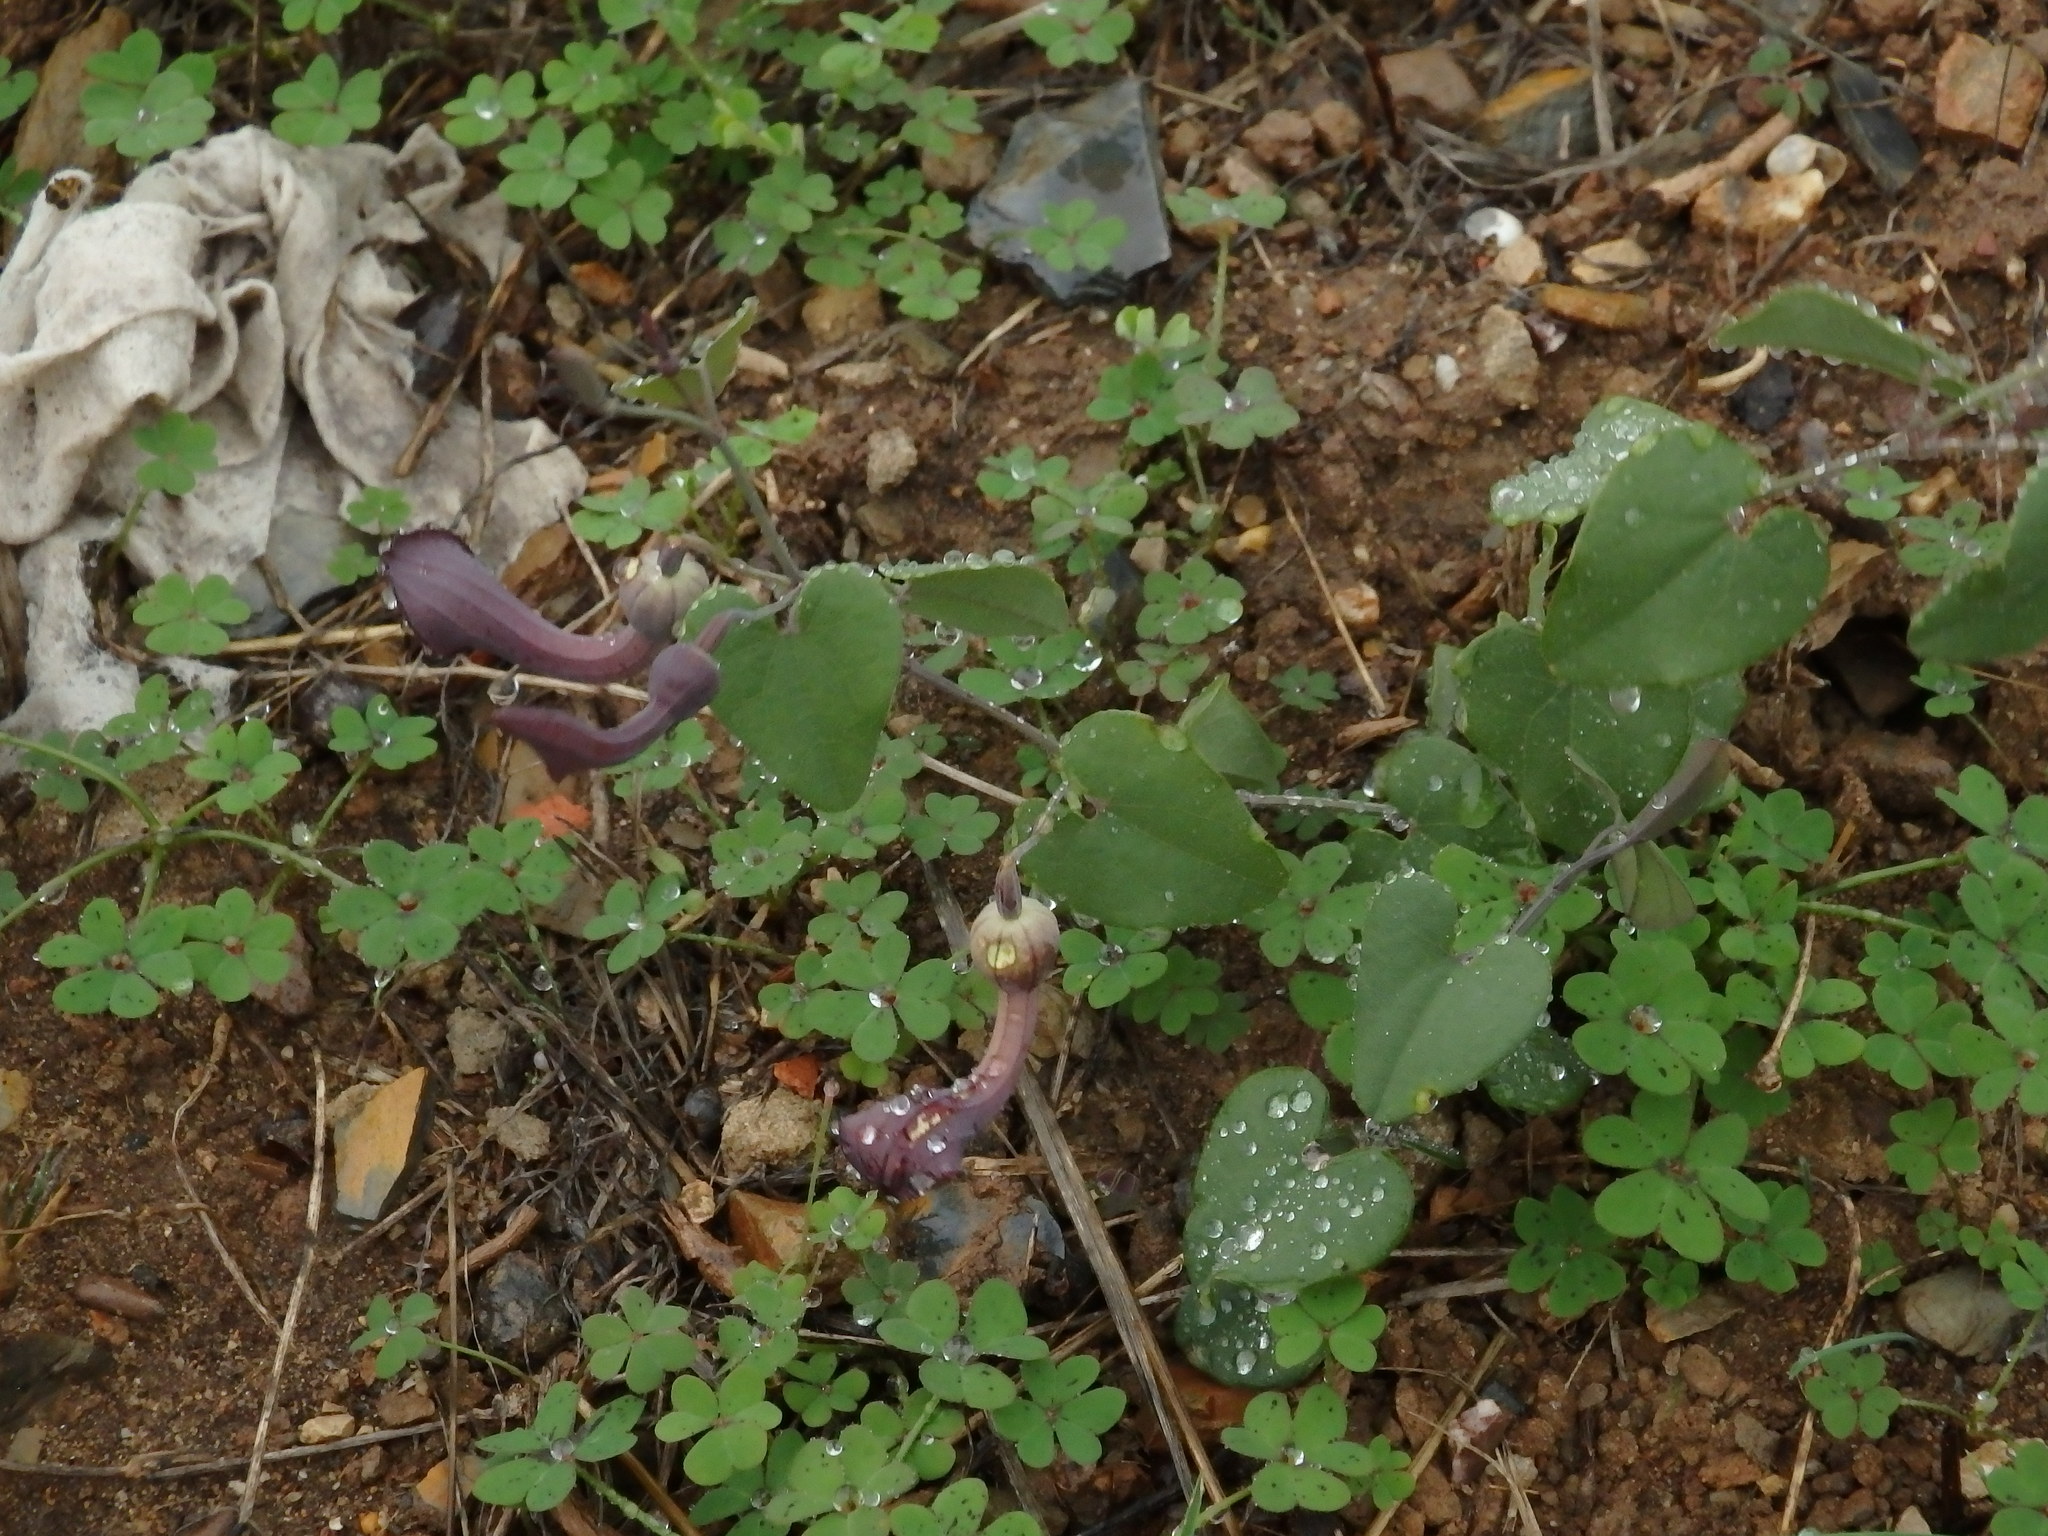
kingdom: Plantae
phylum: Tracheophyta
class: Magnoliopsida
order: Piperales
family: Aristolochiaceae
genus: Aristolochia
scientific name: Aristolochia baetica
